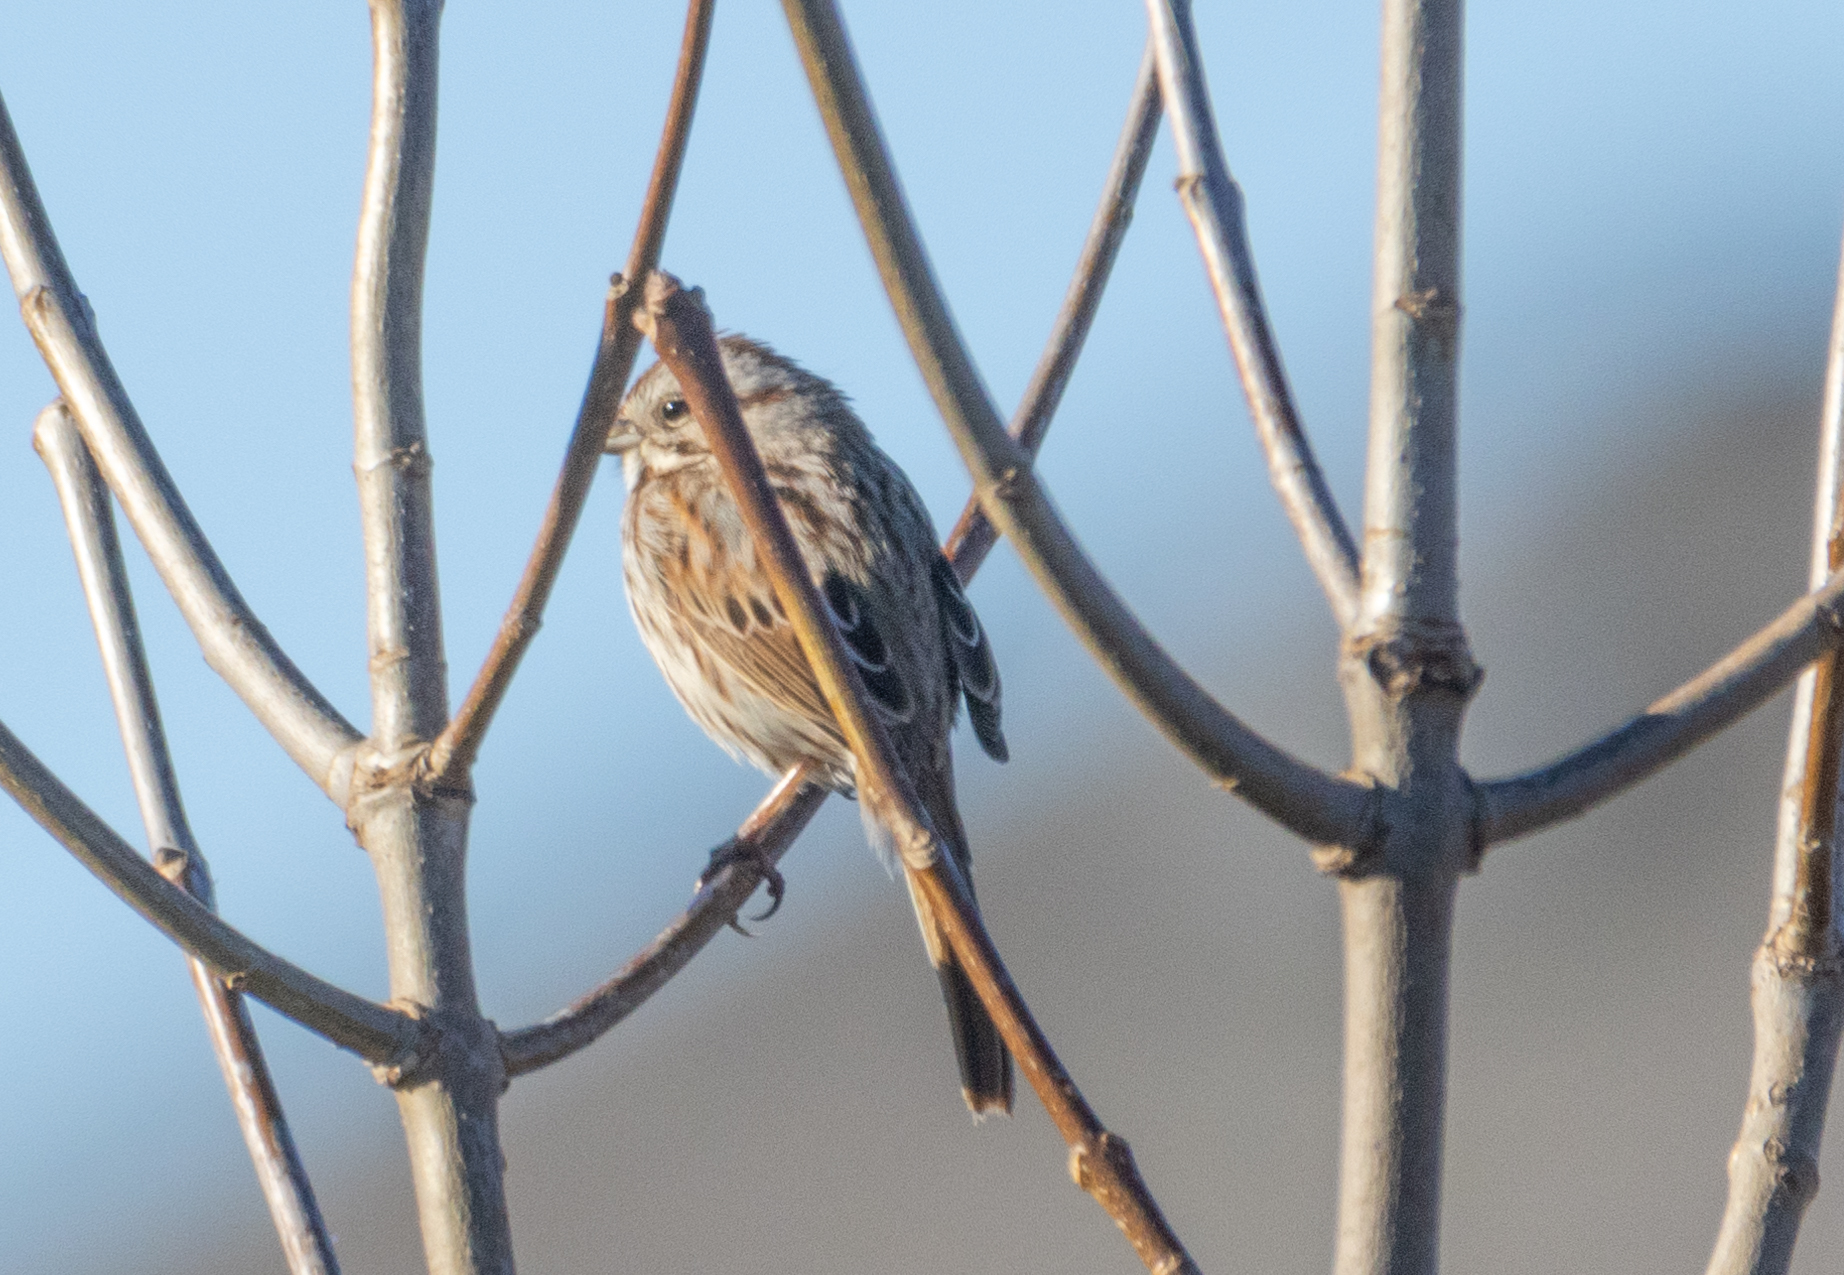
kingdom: Animalia
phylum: Chordata
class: Aves
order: Passeriformes
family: Passerellidae
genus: Melospiza
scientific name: Melospiza melodia
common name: Song sparrow
